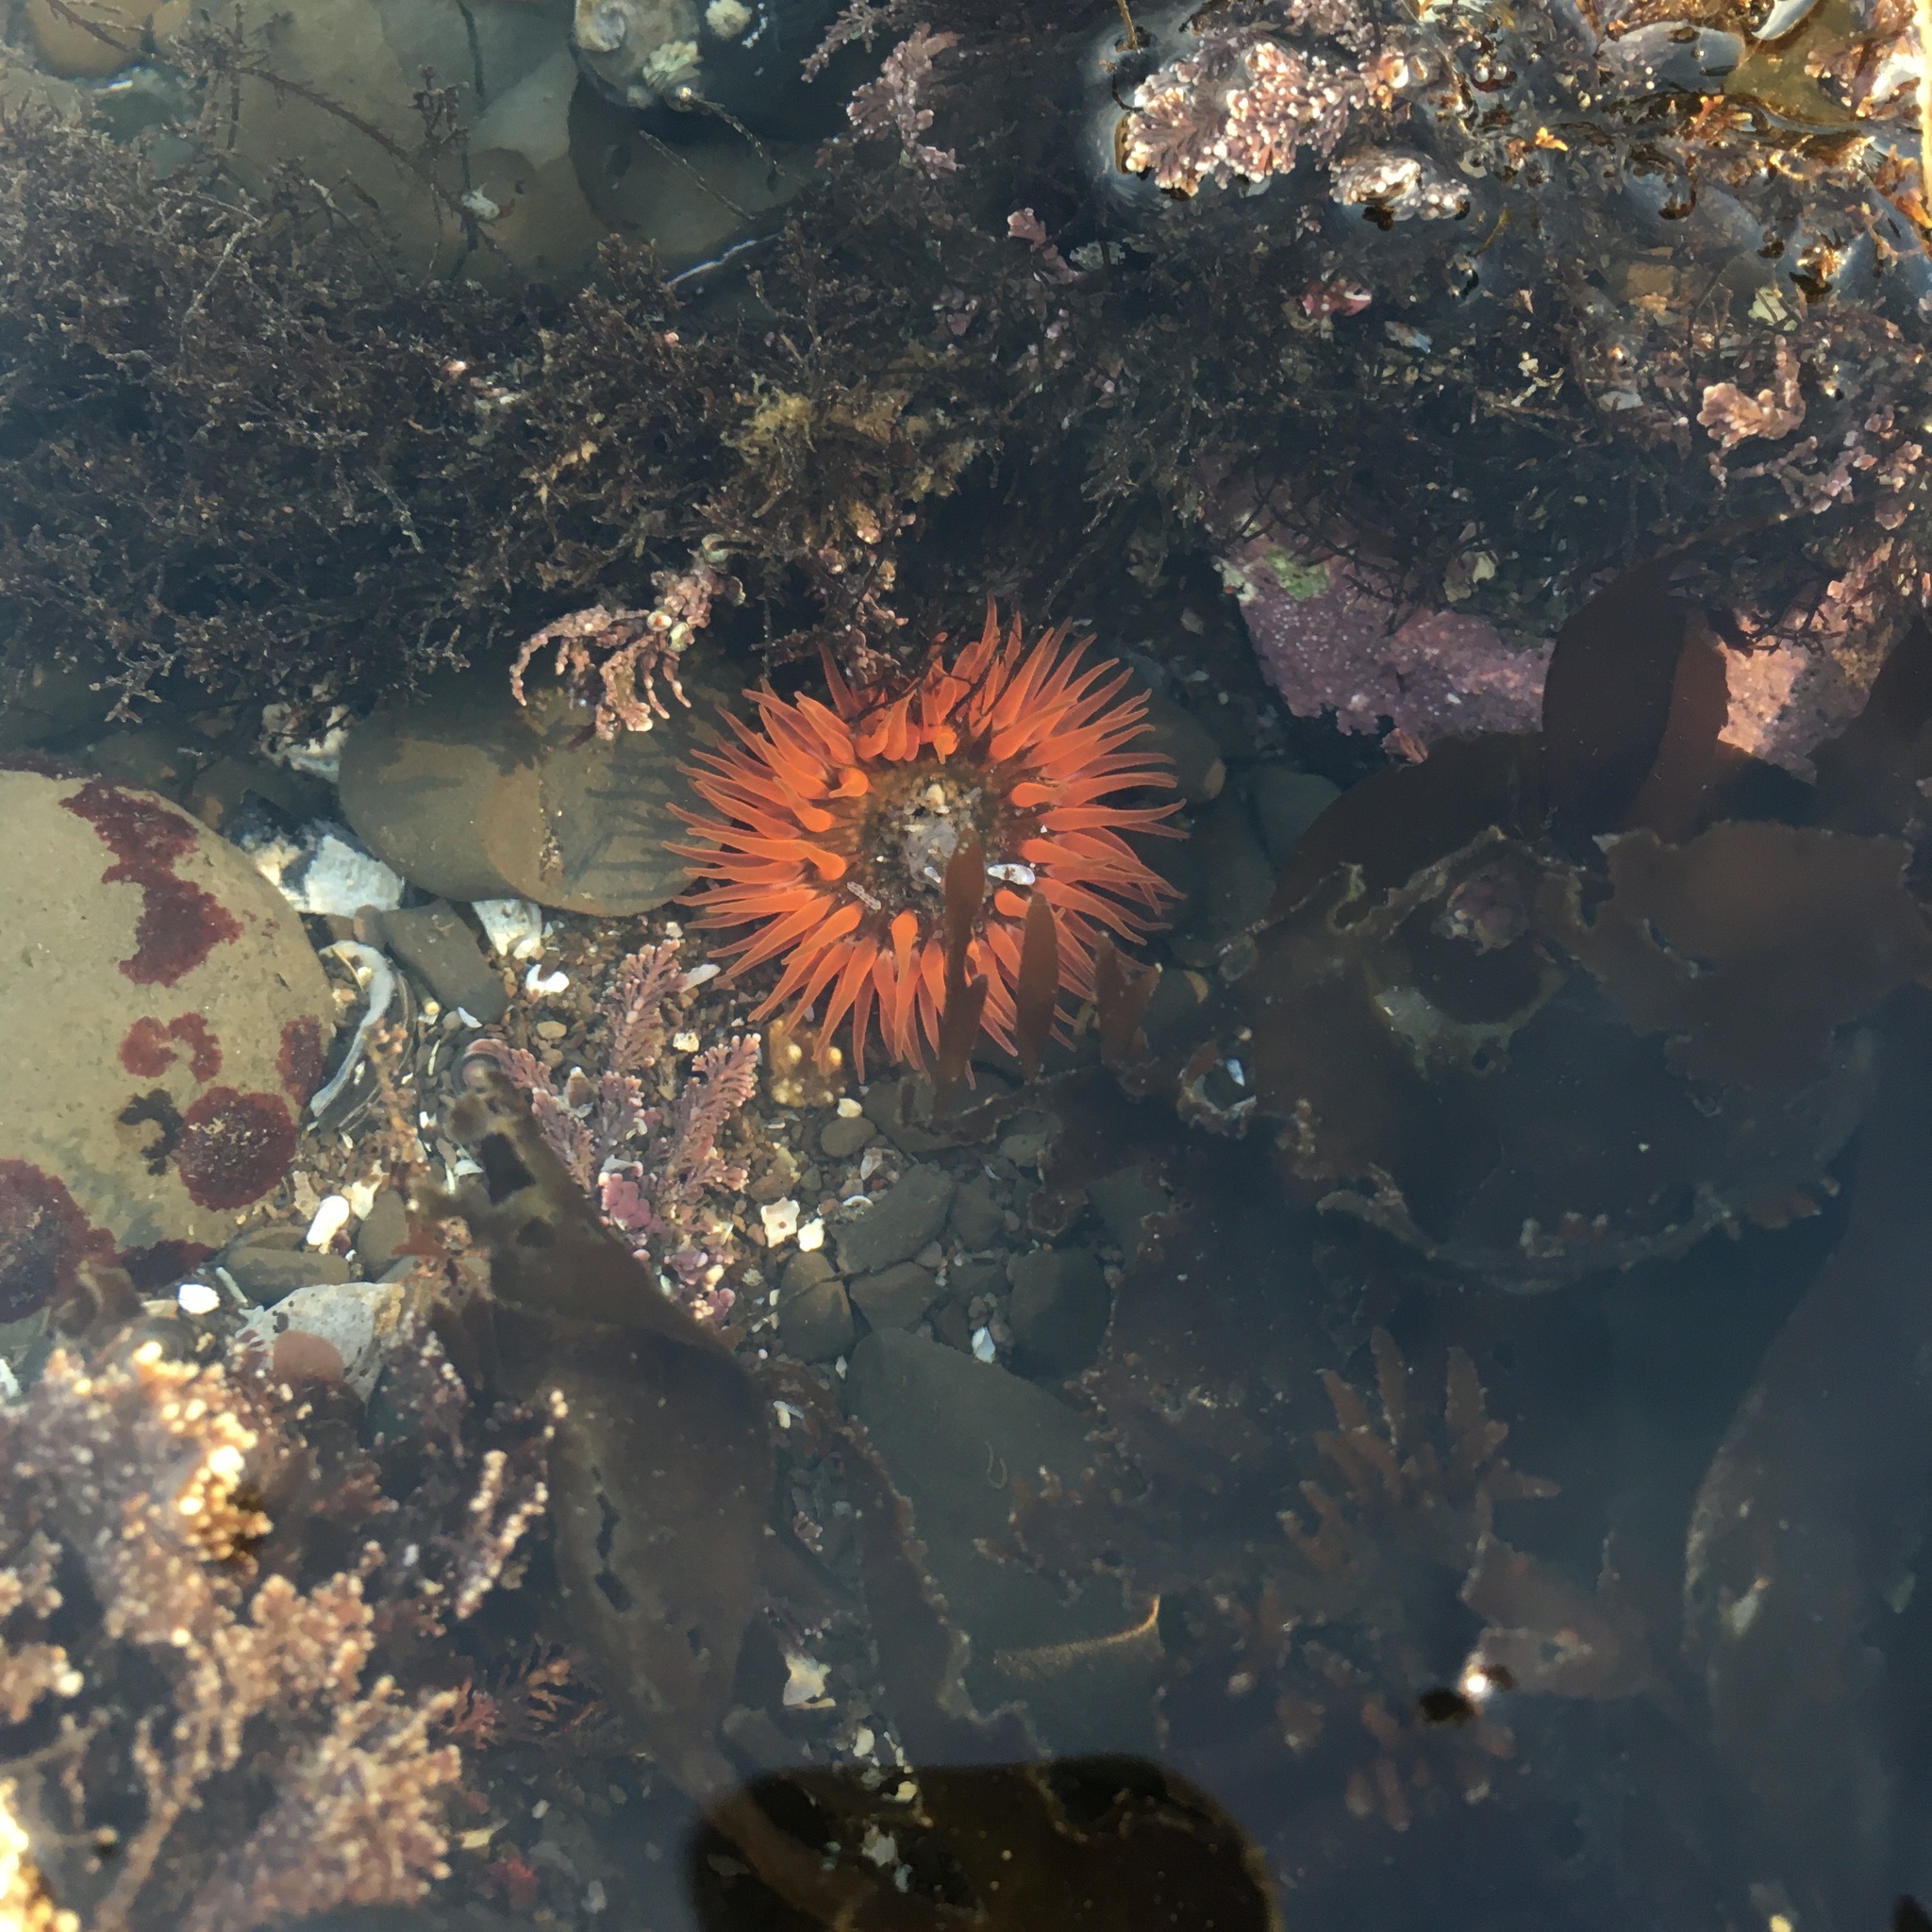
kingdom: Animalia
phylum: Cnidaria
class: Anthozoa
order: Actiniaria
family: Actiniidae
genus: Anthopleura
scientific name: Anthopleura artemisia
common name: Buried sea anemone
